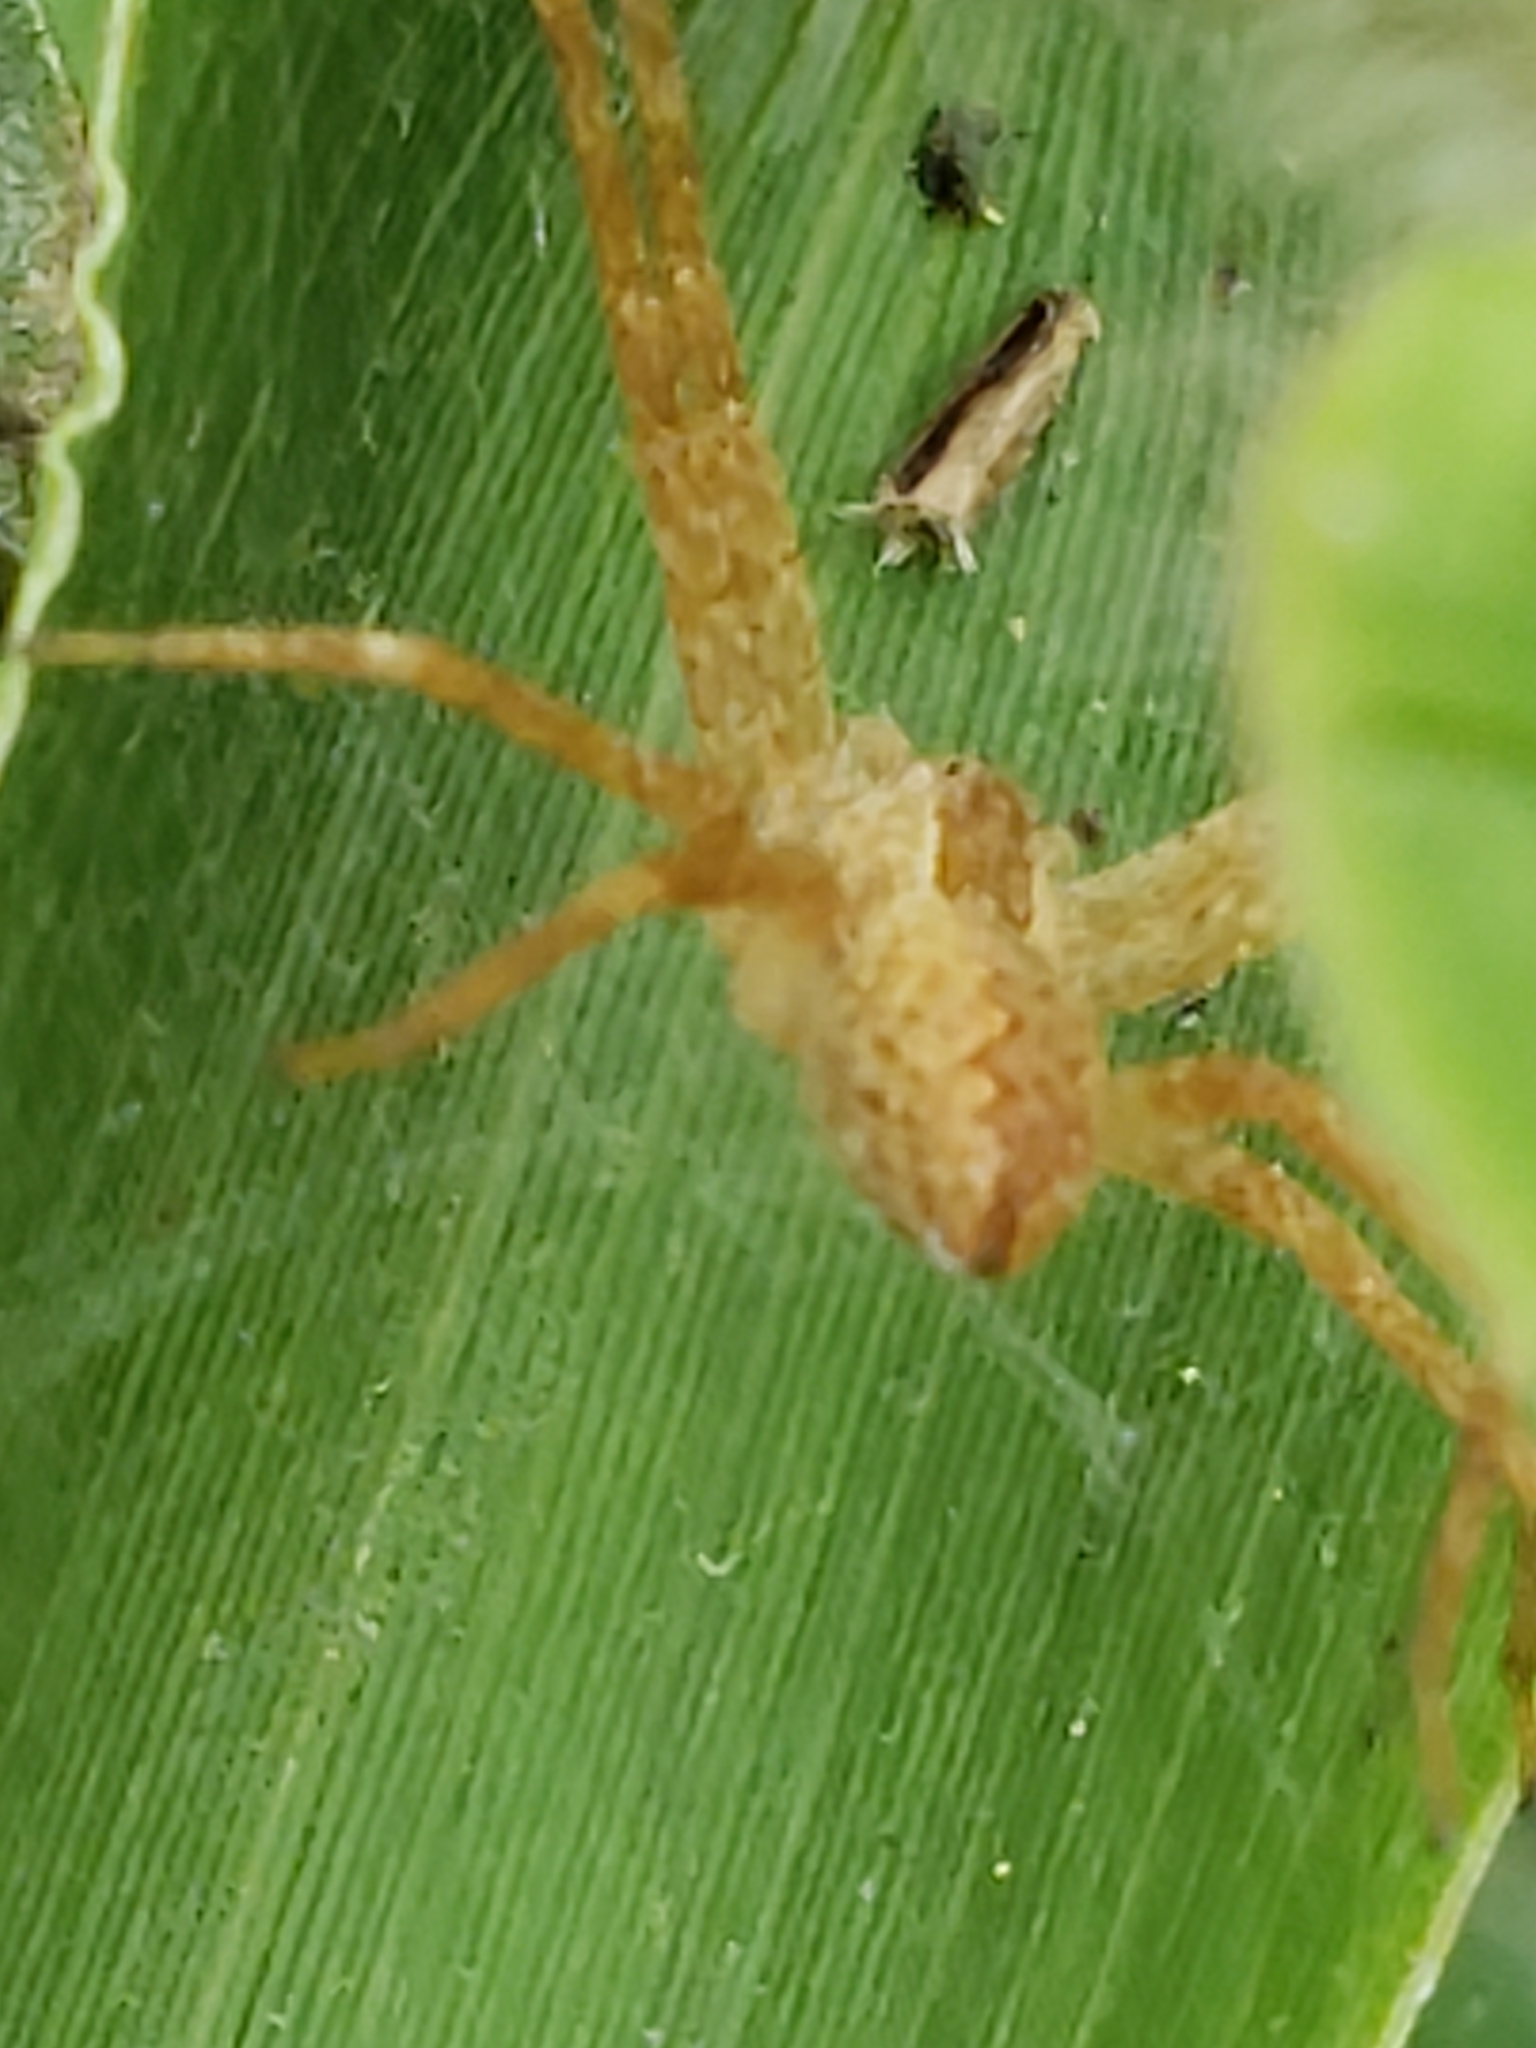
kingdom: Animalia
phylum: Arthropoda
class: Arachnida
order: Araneae
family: Pisauridae
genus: Pisaurina
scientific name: Pisaurina mira
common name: American nursery web spider
